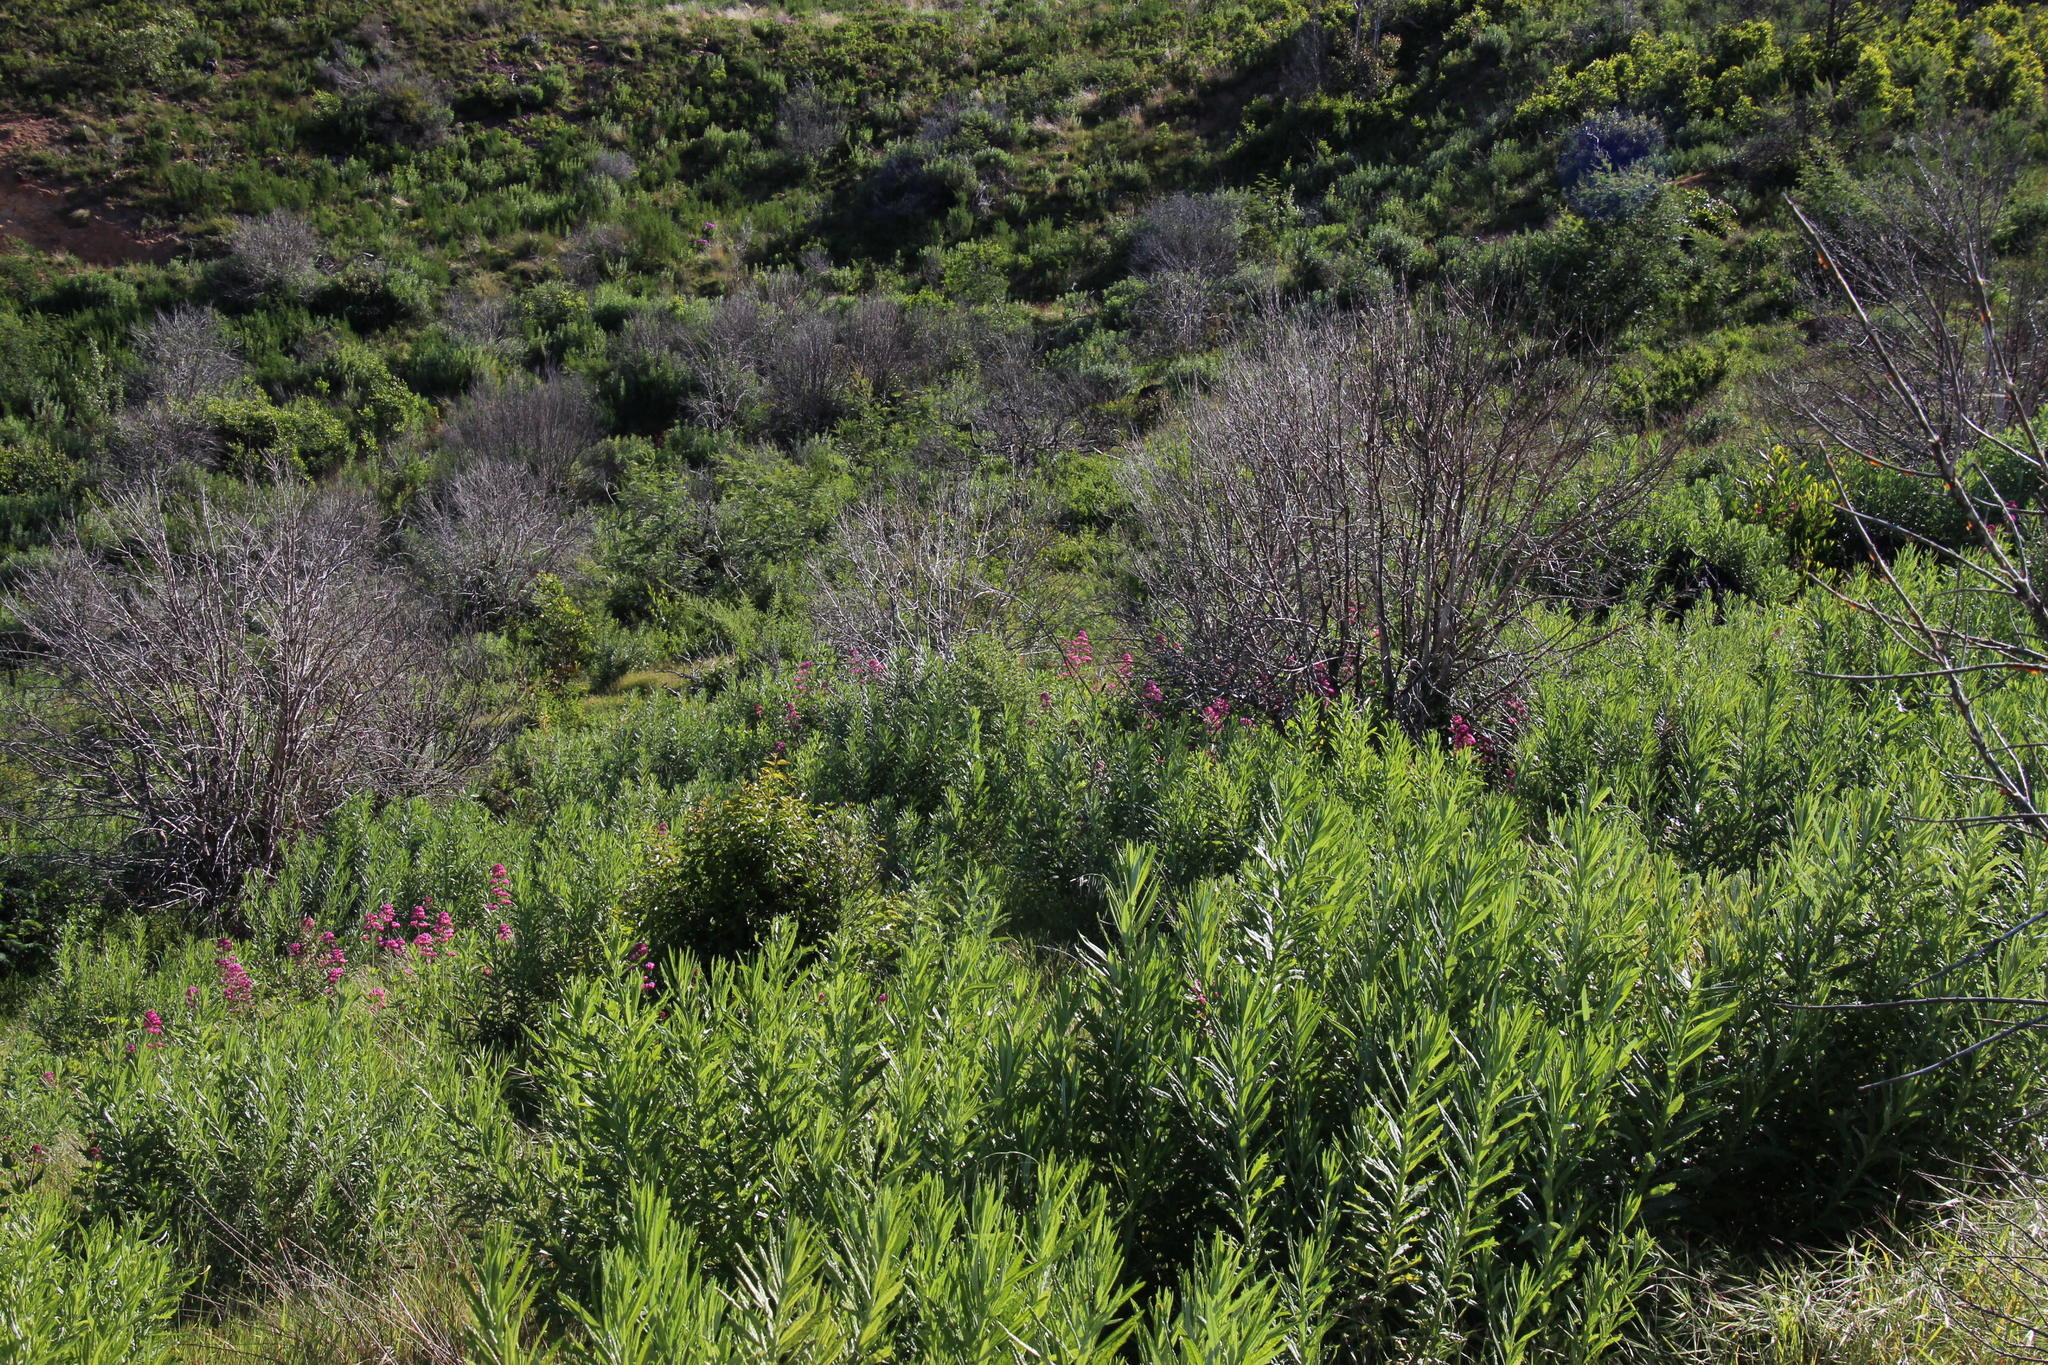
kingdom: Plantae
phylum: Tracheophyta
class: Magnoliopsida
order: Dipsacales
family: Caprifoliaceae
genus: Centranthus
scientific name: Centranthus ruber
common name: Red valerian
